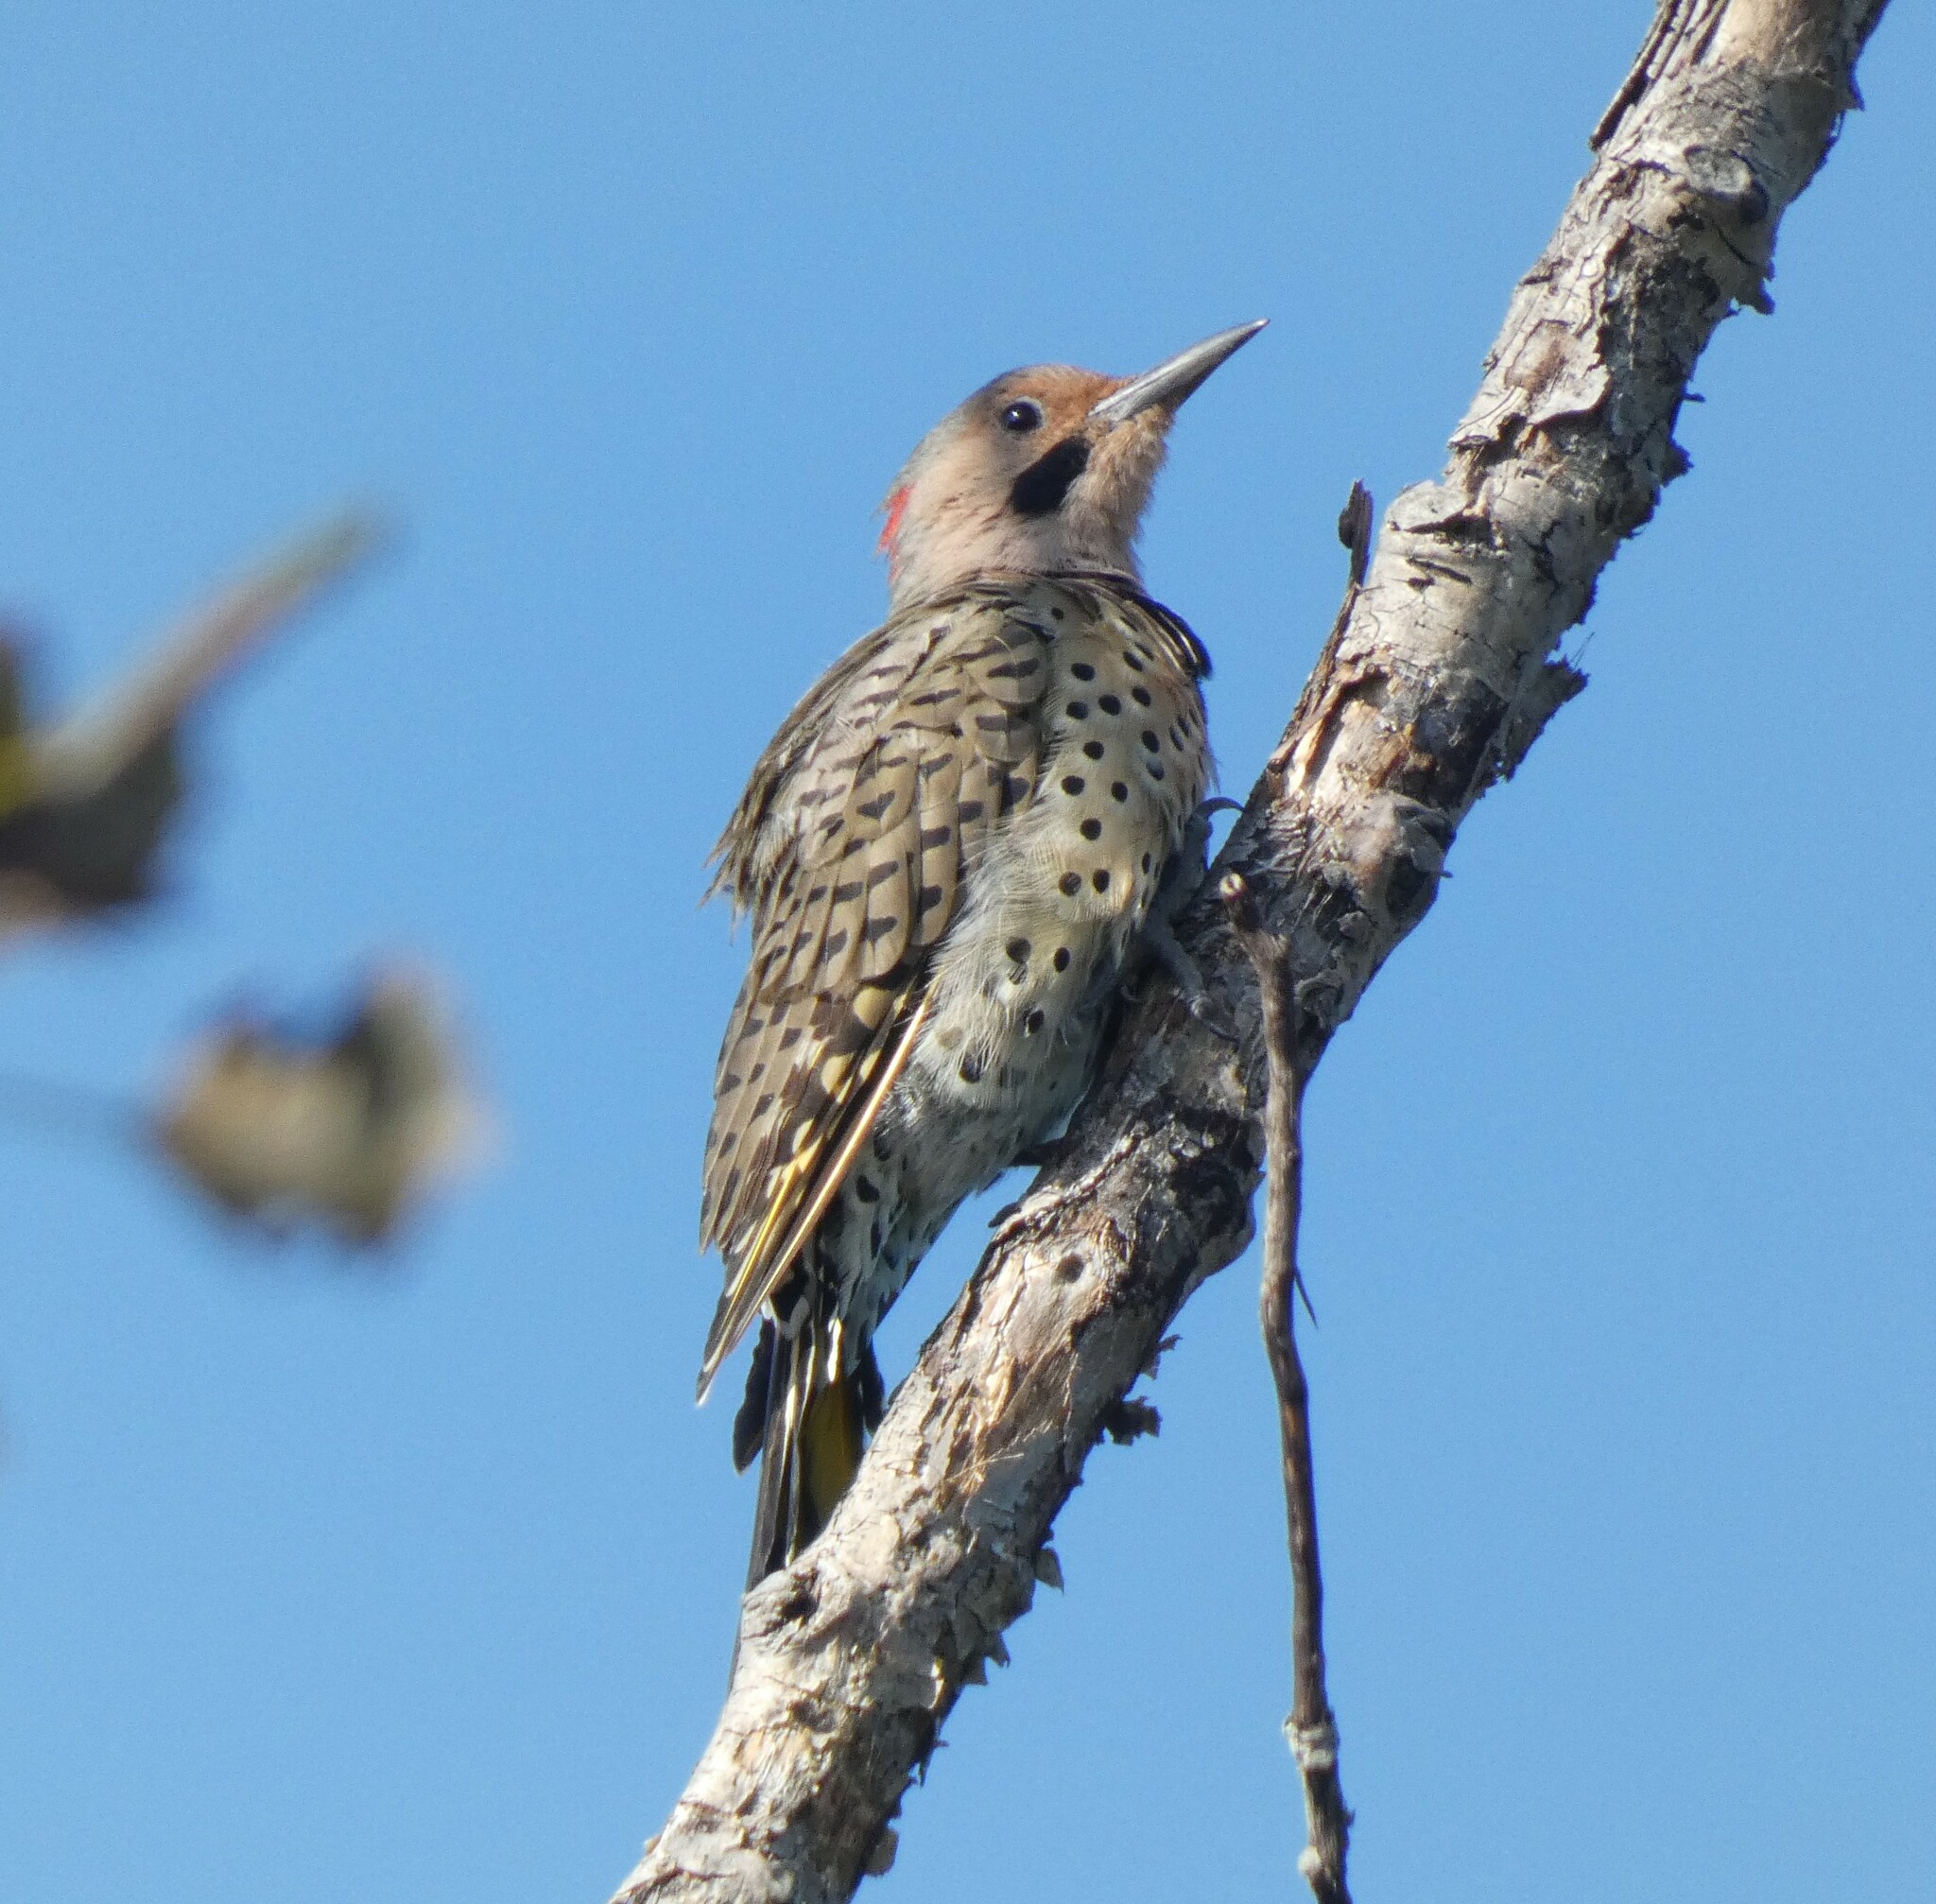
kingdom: Animalia
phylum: Chordata
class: Aves
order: Piciformes
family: Picidae
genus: Colaptes
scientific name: Colaptes auratus
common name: Northern flicker
